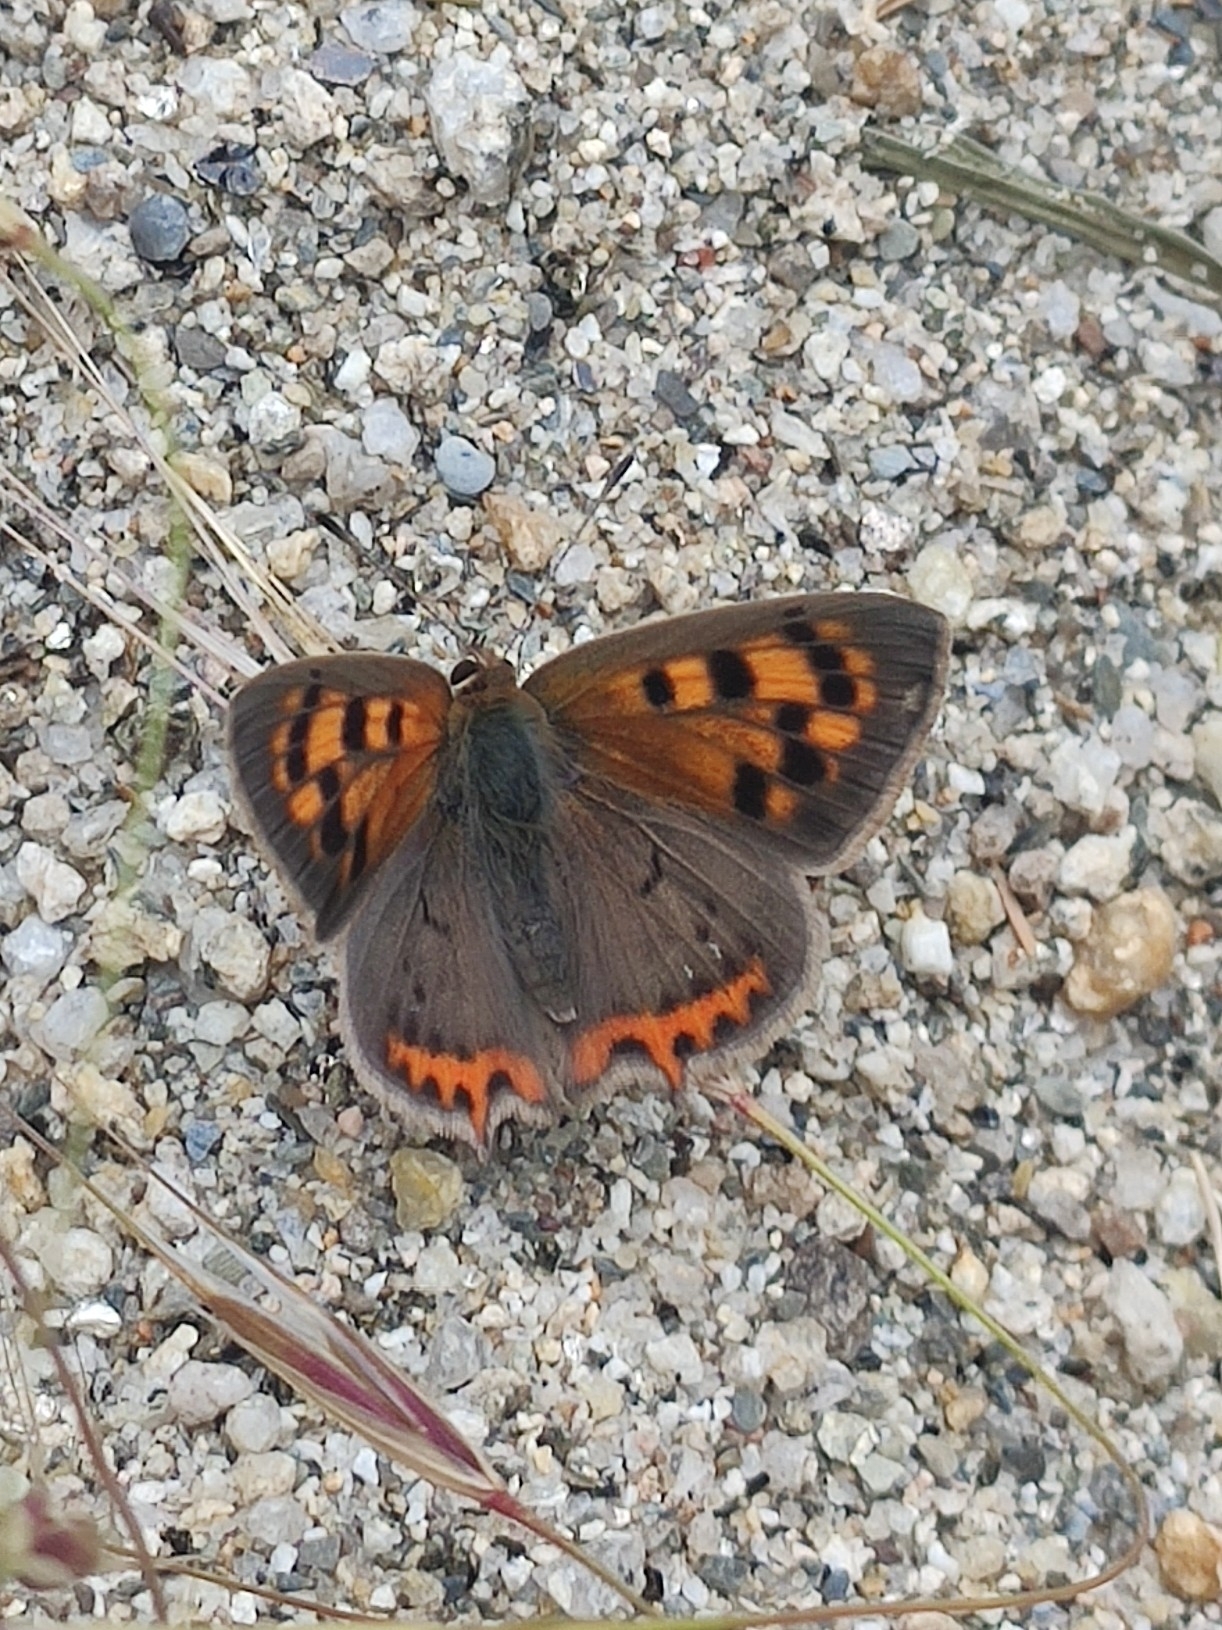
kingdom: Animalia
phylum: Arthropoda
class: Insecta
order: Lepidoptera
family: Lycaenidae
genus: Lycaena
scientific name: Lycaena phlaeas
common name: Small copper
